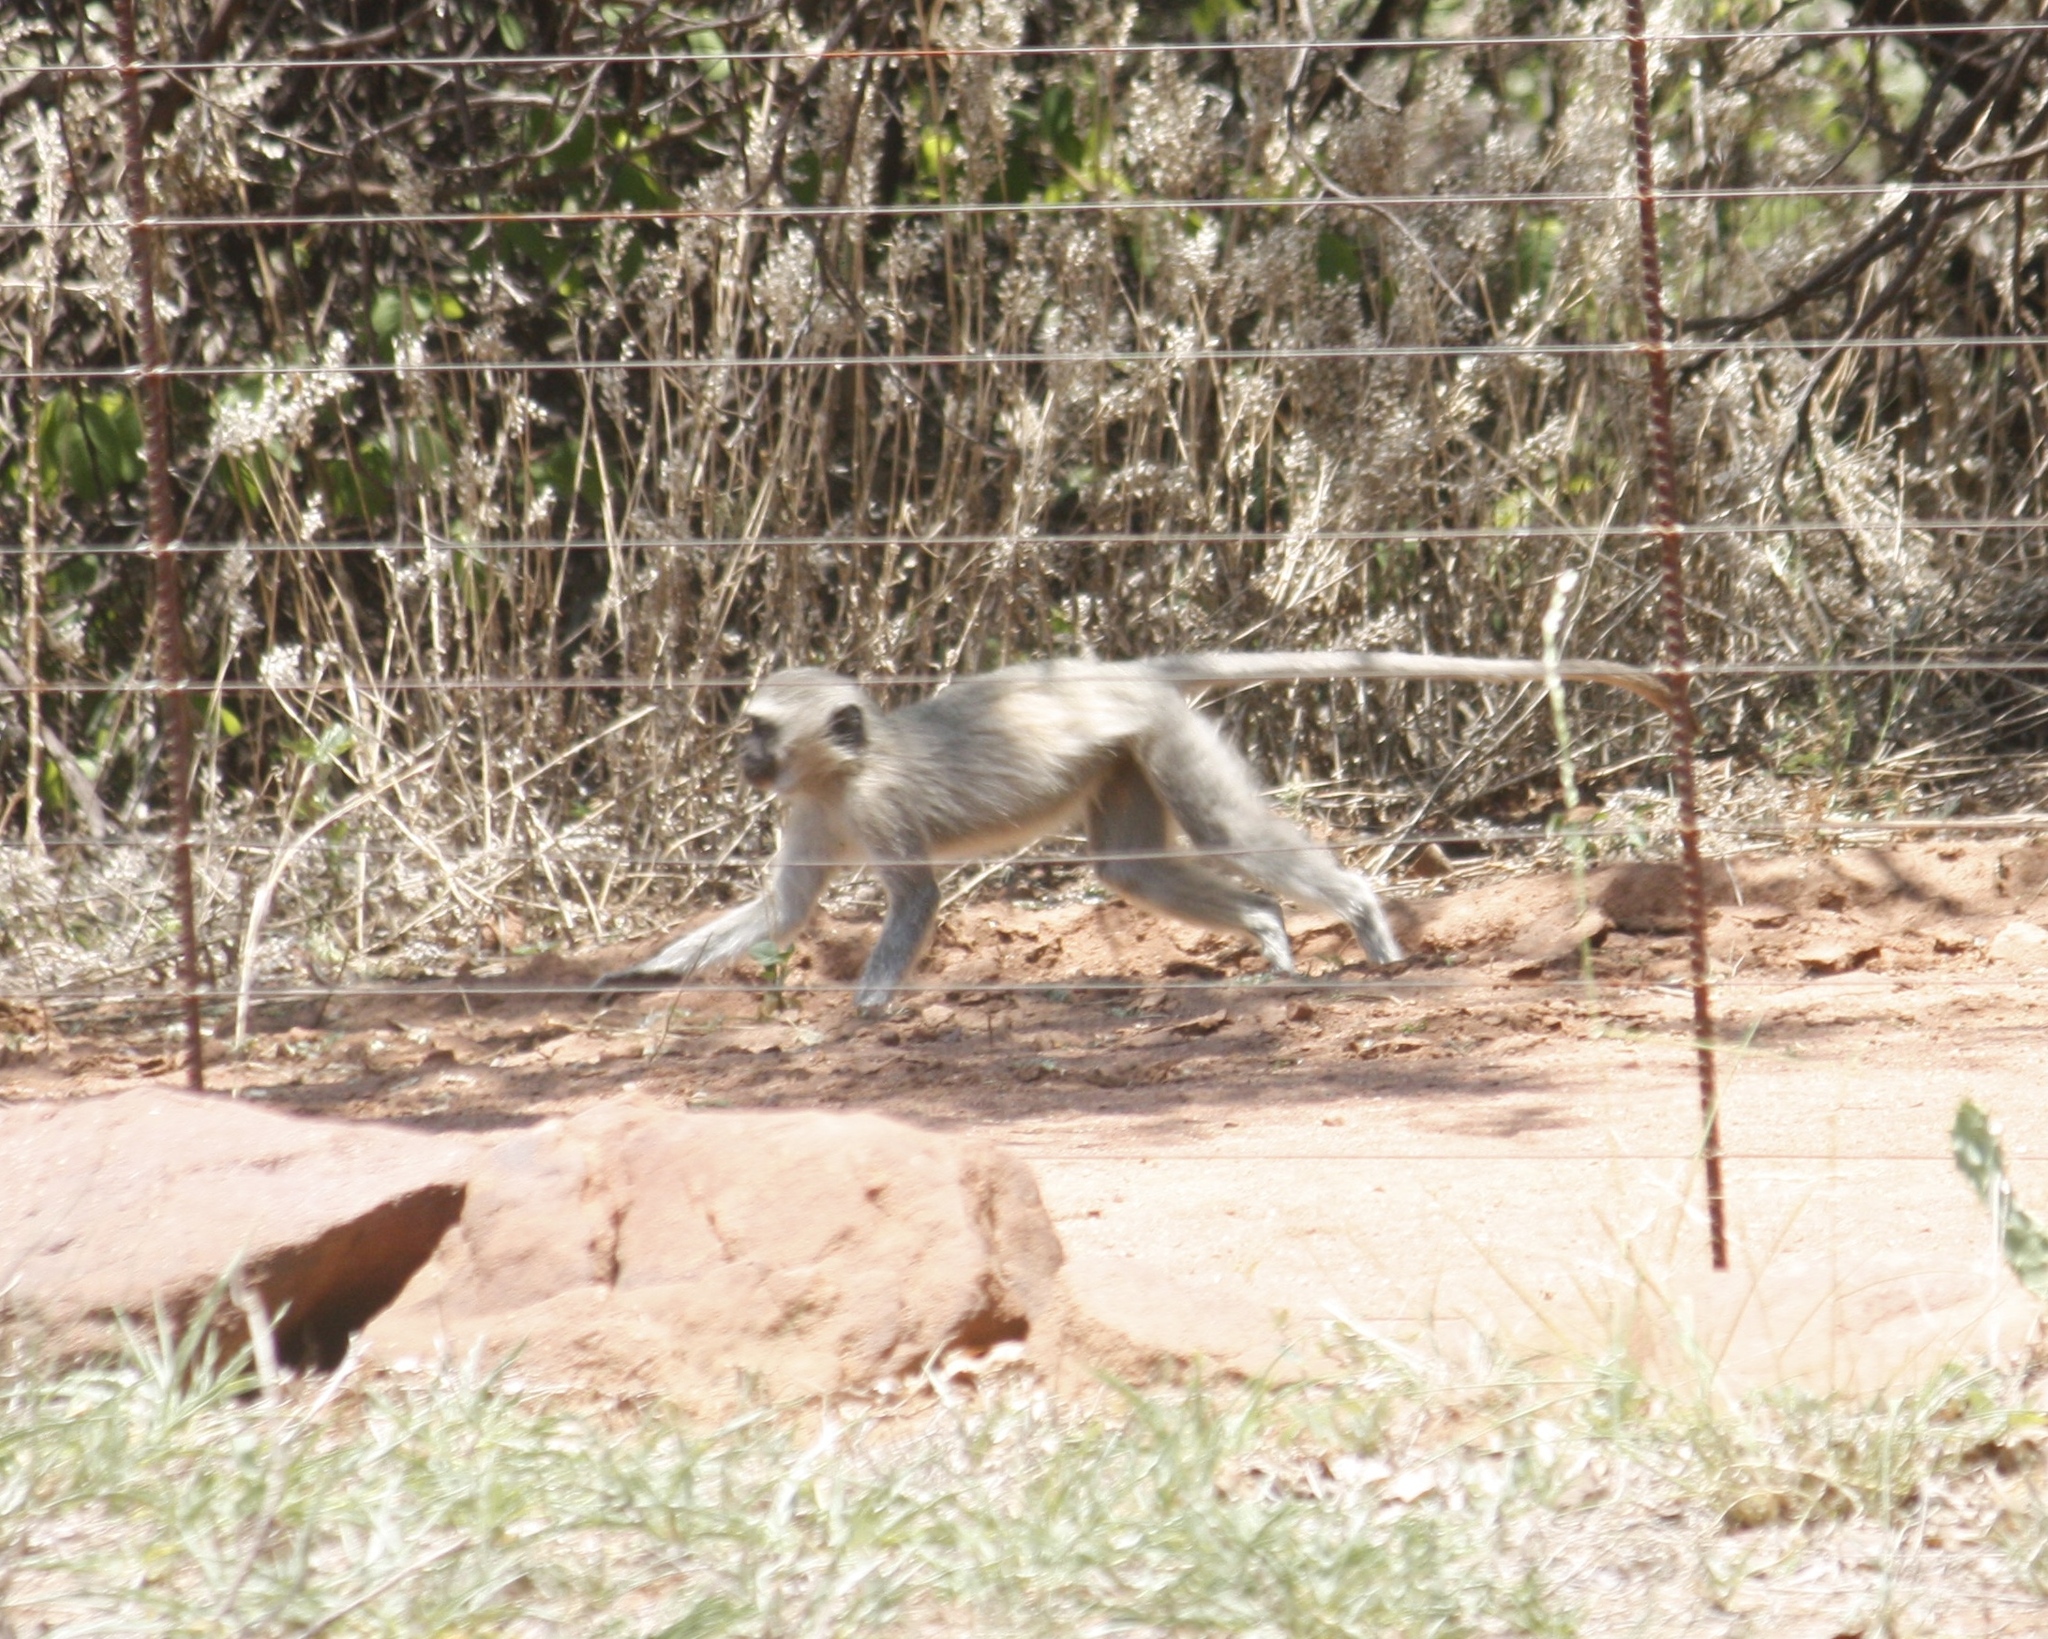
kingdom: Animalia
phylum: Chordata
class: Mammalia
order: Primates
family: Cercopithecidae
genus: Chlorocebus
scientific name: Chlorocebus pygerythrus
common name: Vervet monkey
